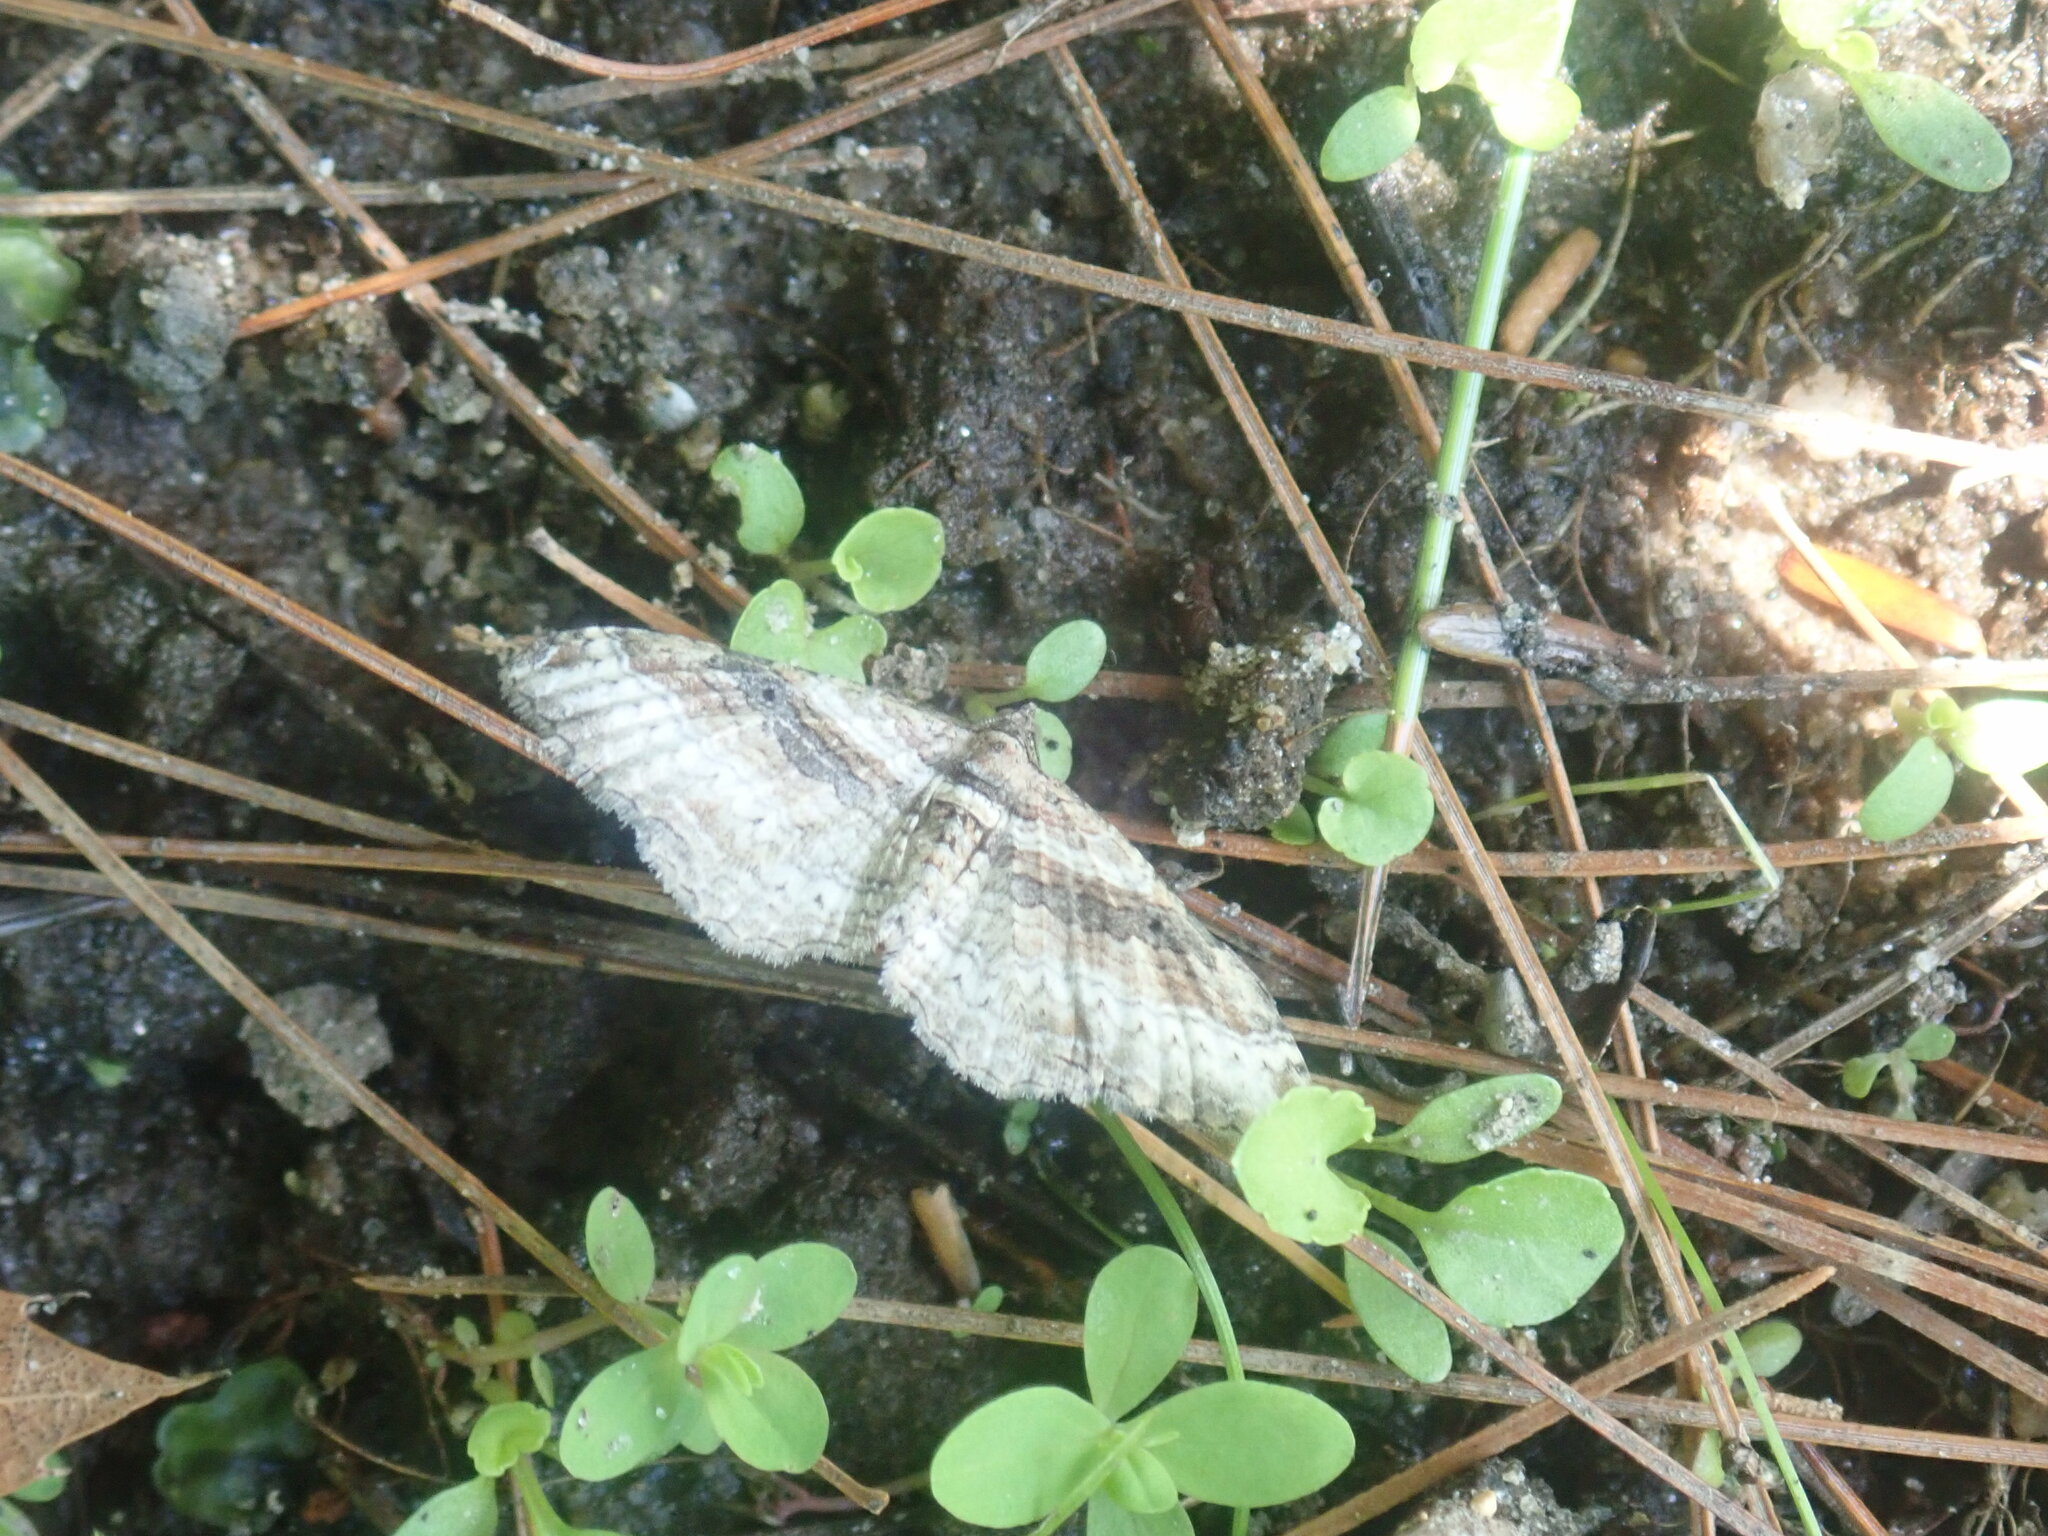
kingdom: Animalia
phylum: Arthropoda
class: Insecta
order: Lepidoptera
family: Geometridae
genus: Costaconvexa
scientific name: Costaconvexa centrostrigaria
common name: Bent-line carpet
